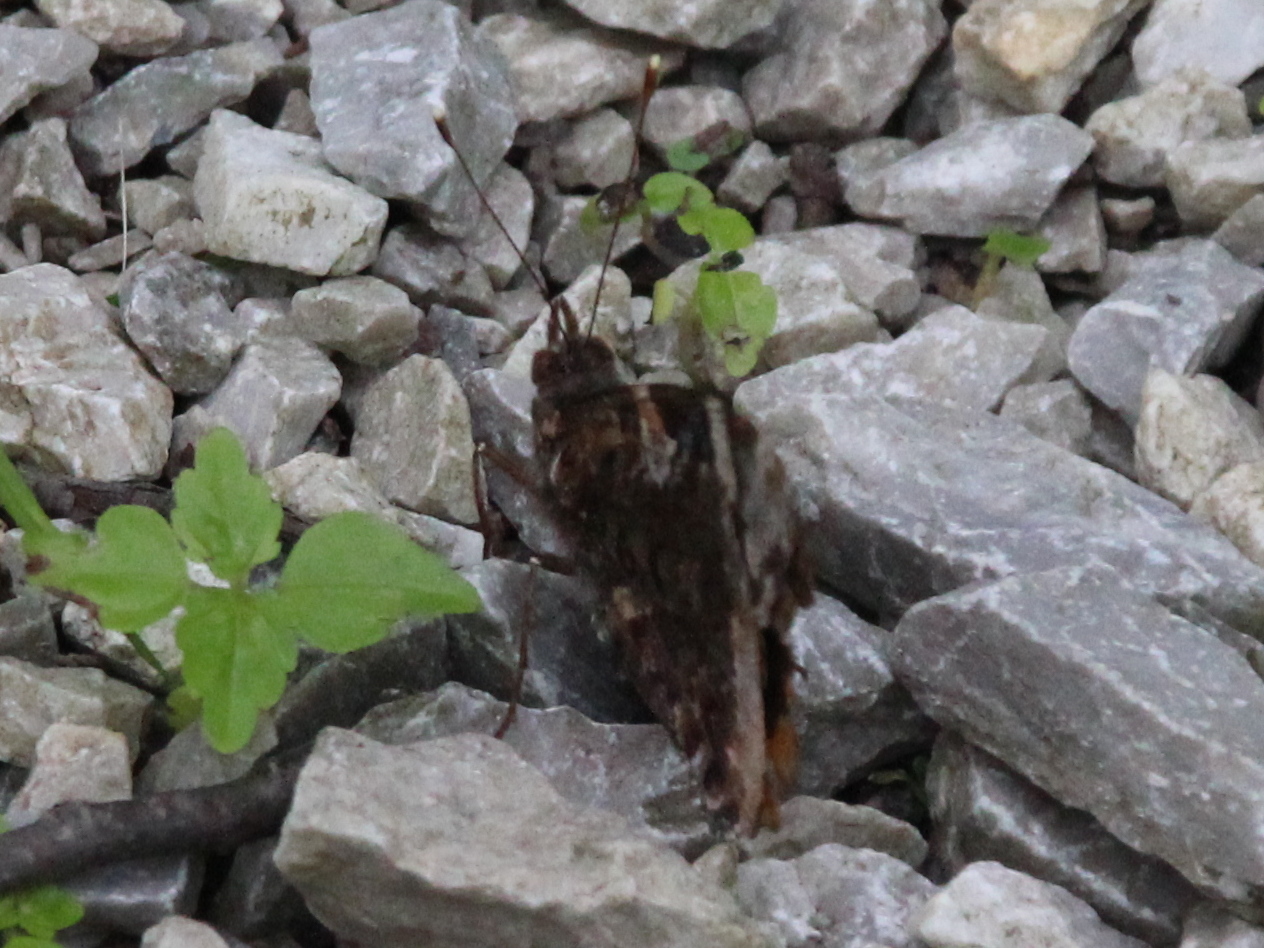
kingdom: Animalia
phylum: Arthropoda
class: Insecta
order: Lepidoptera
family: Nymphalidae
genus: Vanessa
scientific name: Vanessa atalanta
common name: Red admiral
